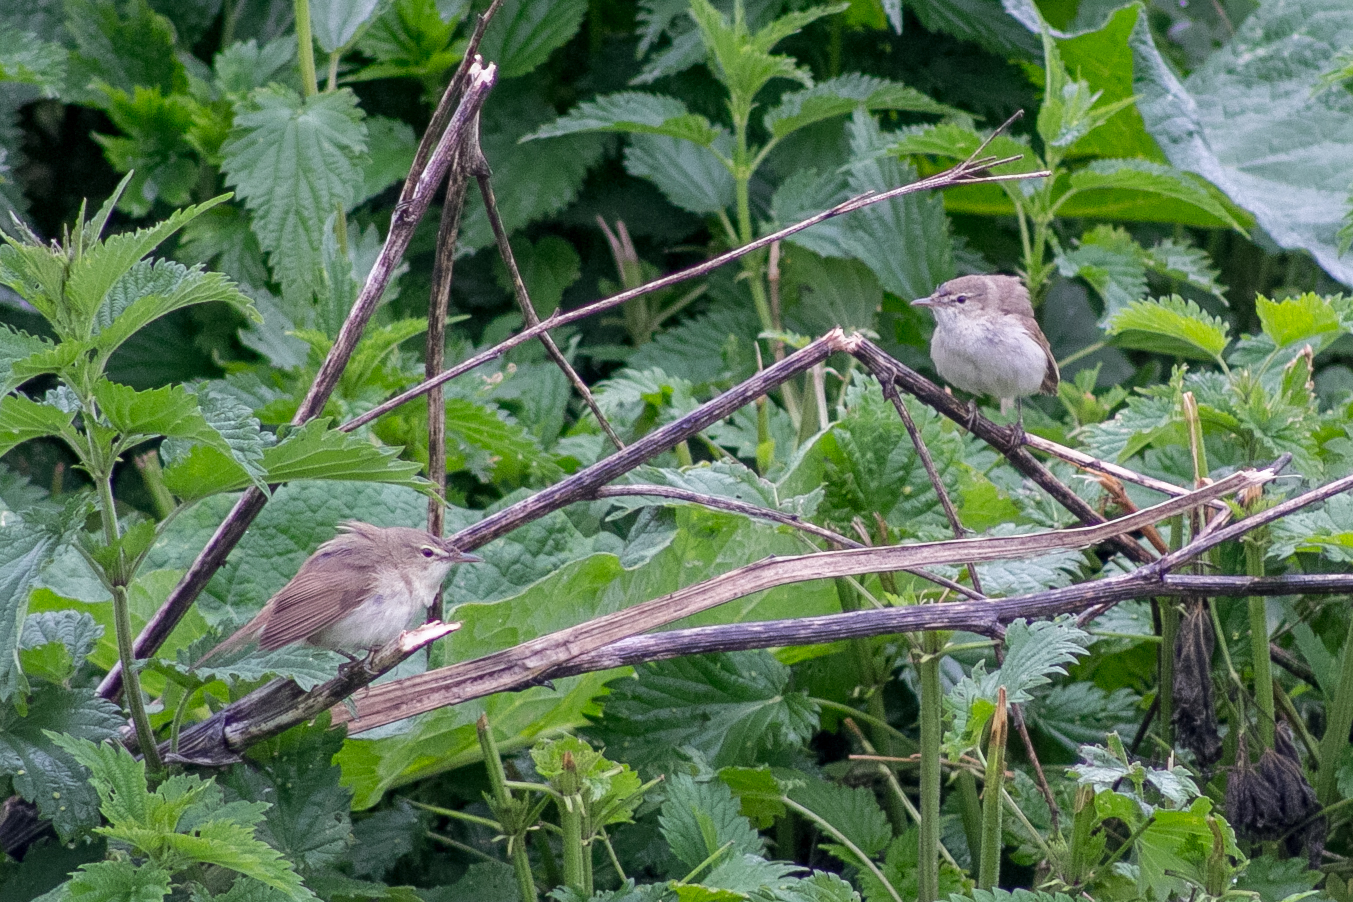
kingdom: Animalia
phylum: Chordata
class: Aves
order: Passeriformes
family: Acrocephalidae
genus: Acrocephalus
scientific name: Acrocephalus dumetorum
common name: Blyth's reed warbler
